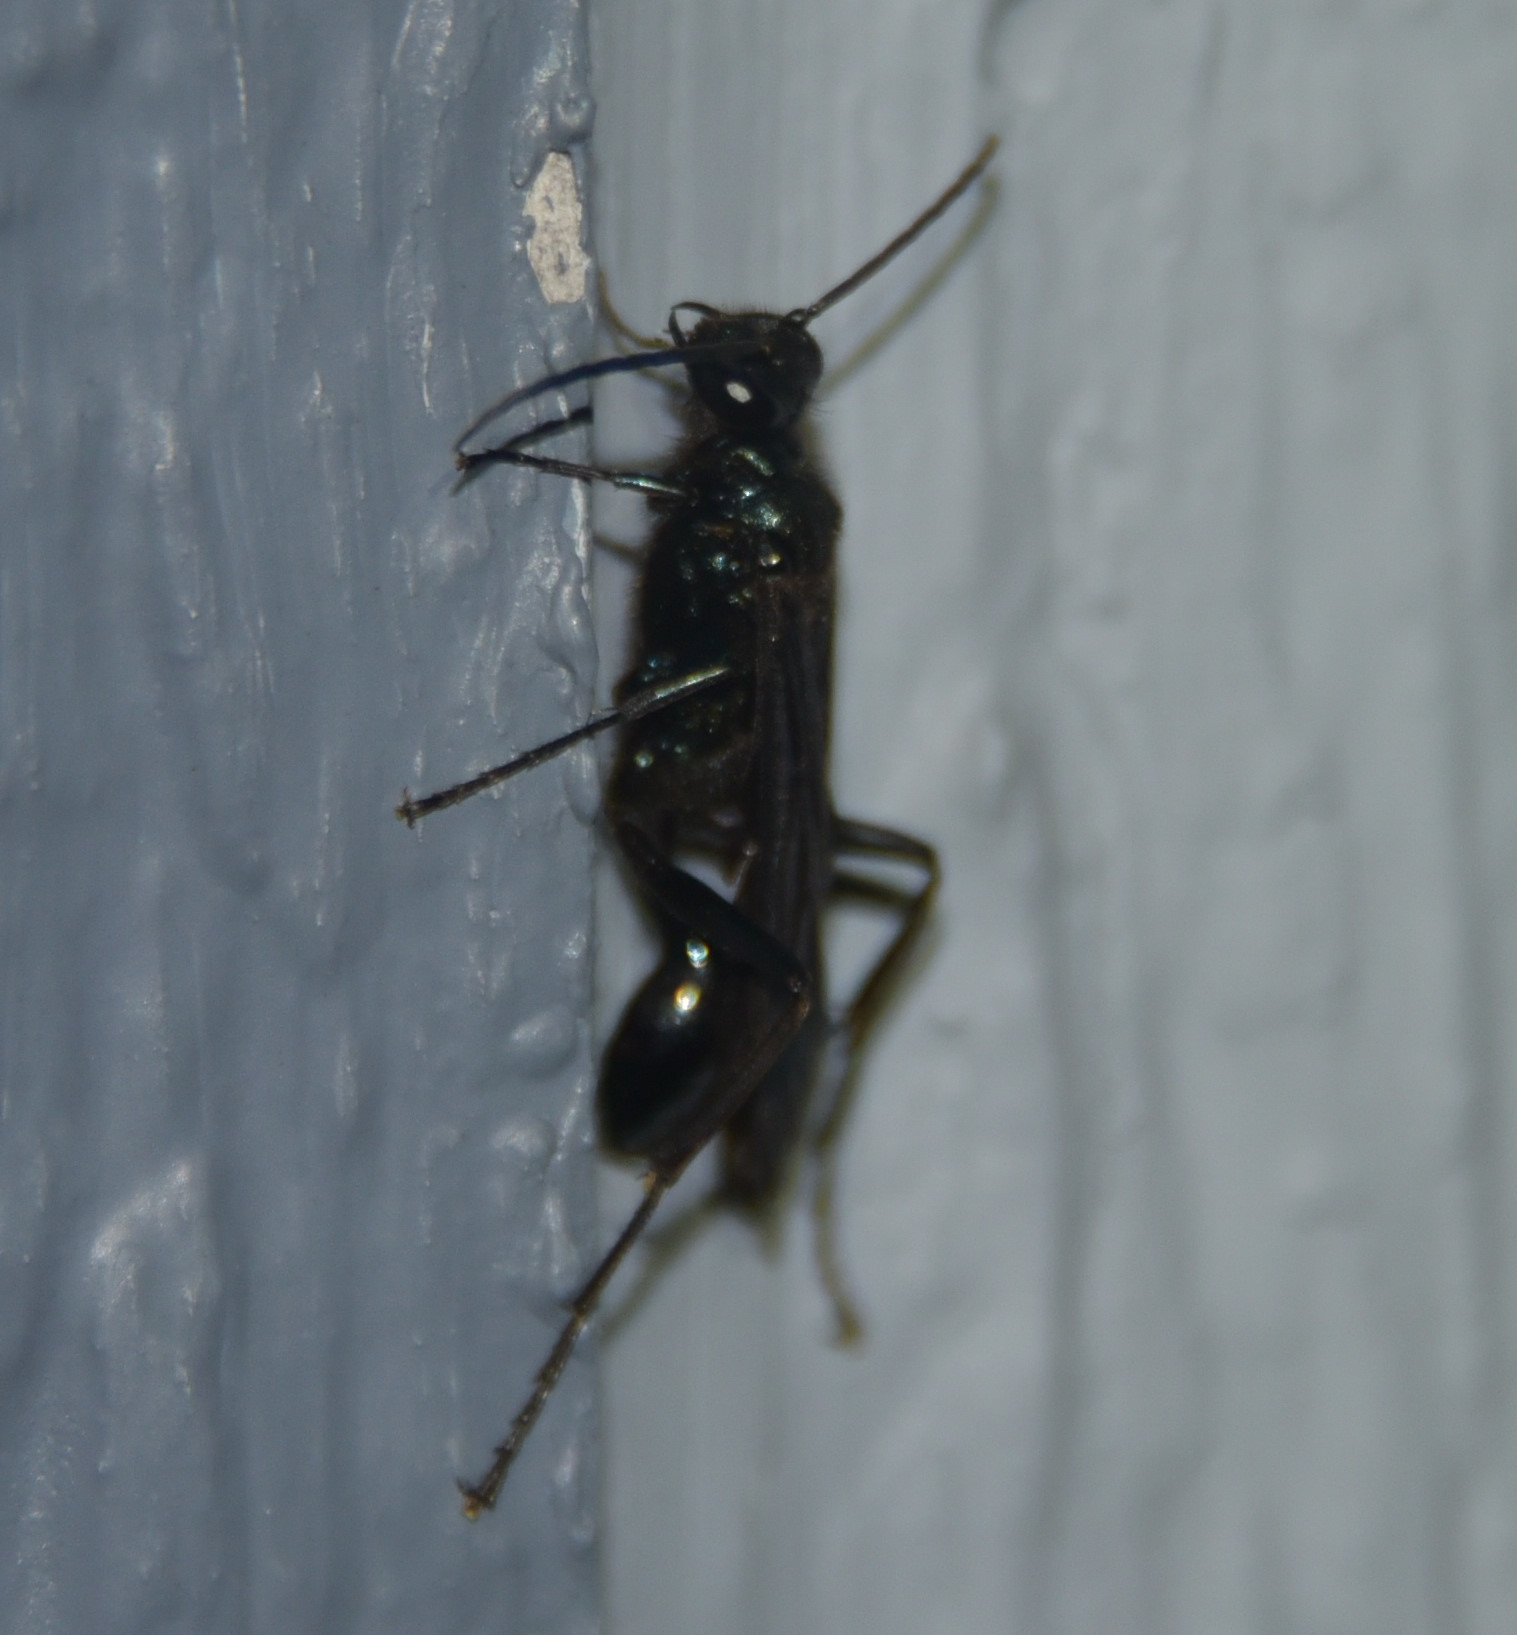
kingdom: Animalia
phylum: Arthropoda
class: Insecta
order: Hymenoptera
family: Sphecidae
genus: Chalybion
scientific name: Chalybion californicum
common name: Mud dauber
